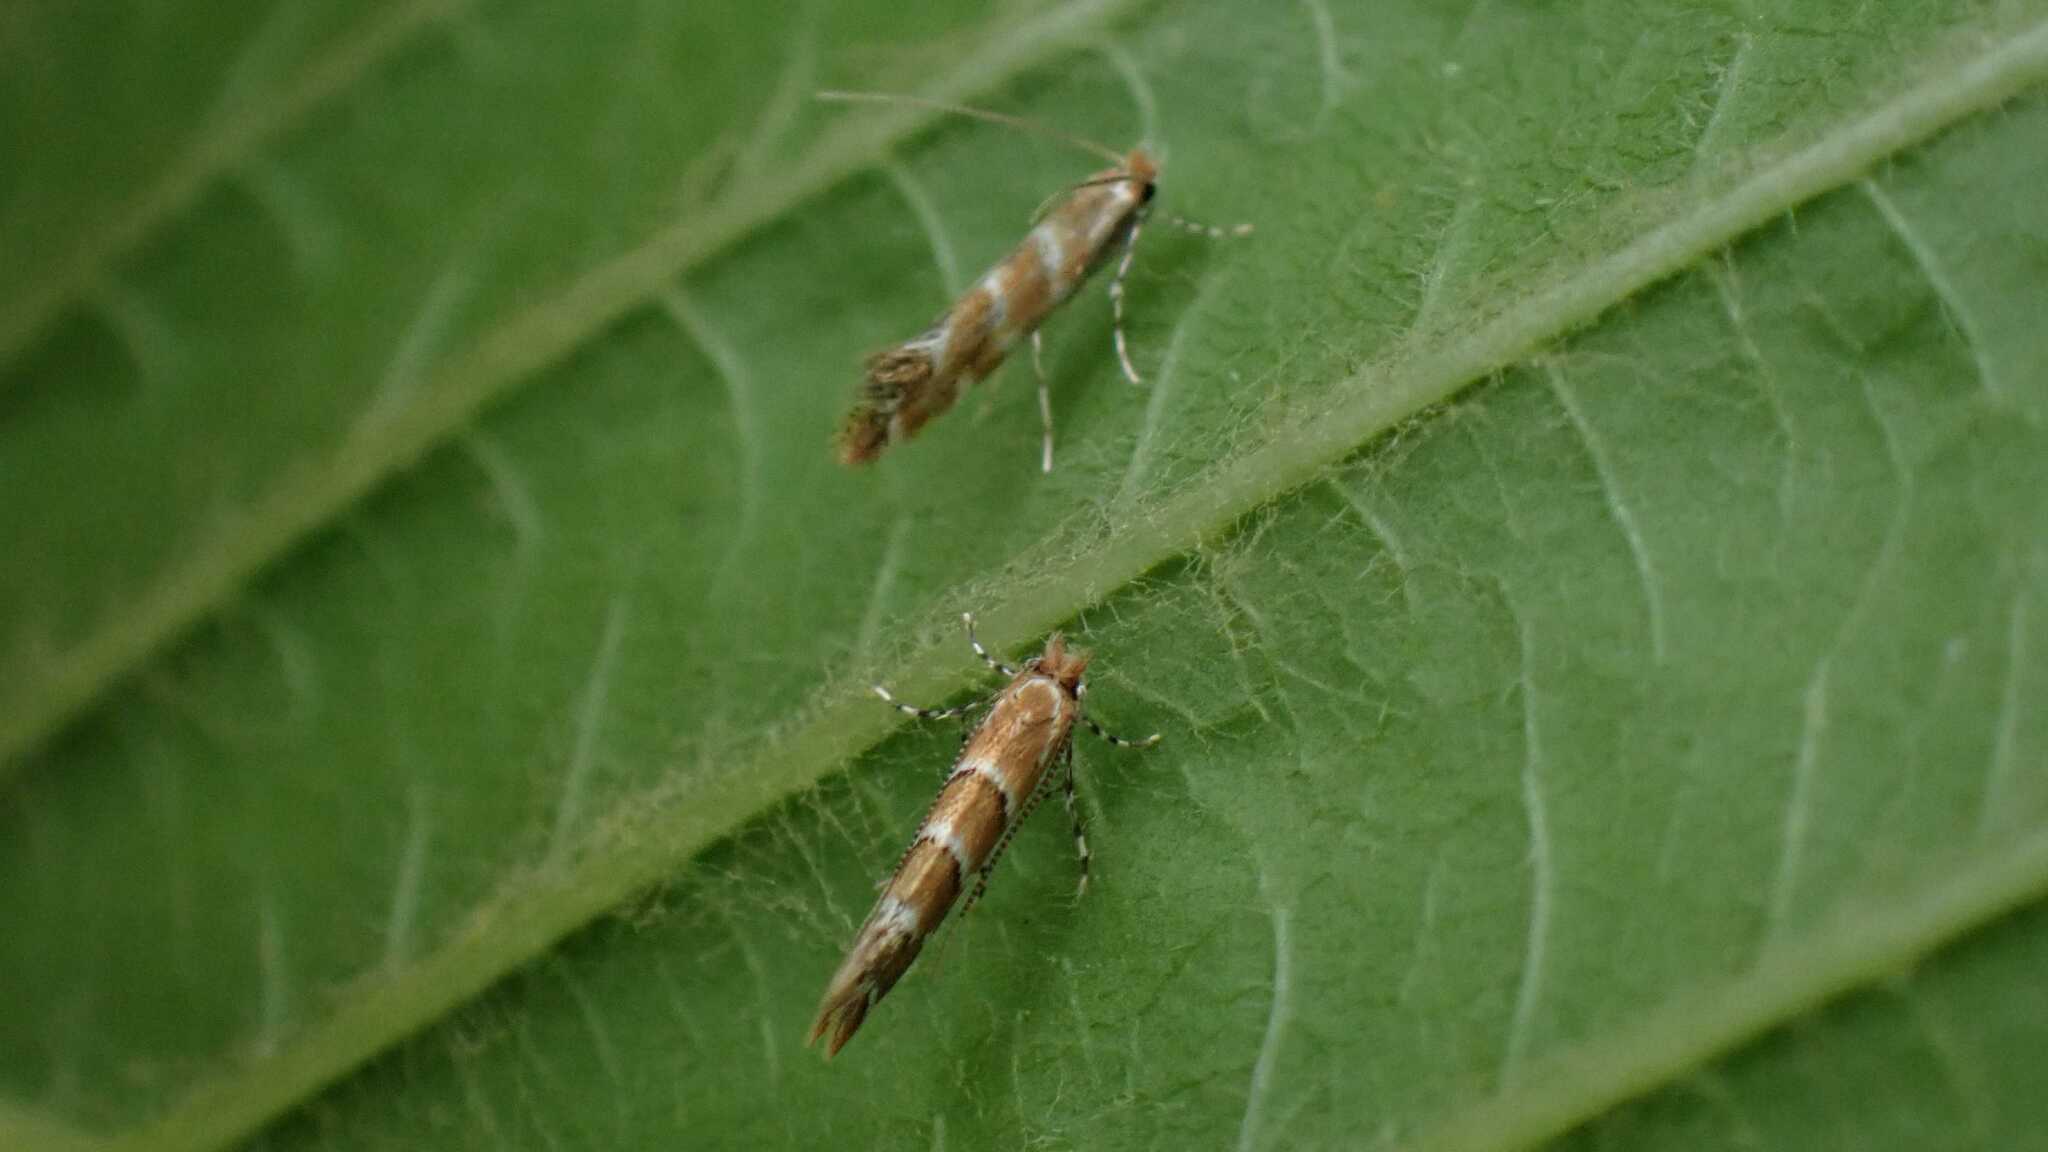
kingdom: Animalia
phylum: Arthropoda
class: Insecta
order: Lepidoptera
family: Gracillariidae
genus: Cameraria
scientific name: Cameraria ohridella
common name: Horse-chestnut leaf-miner
